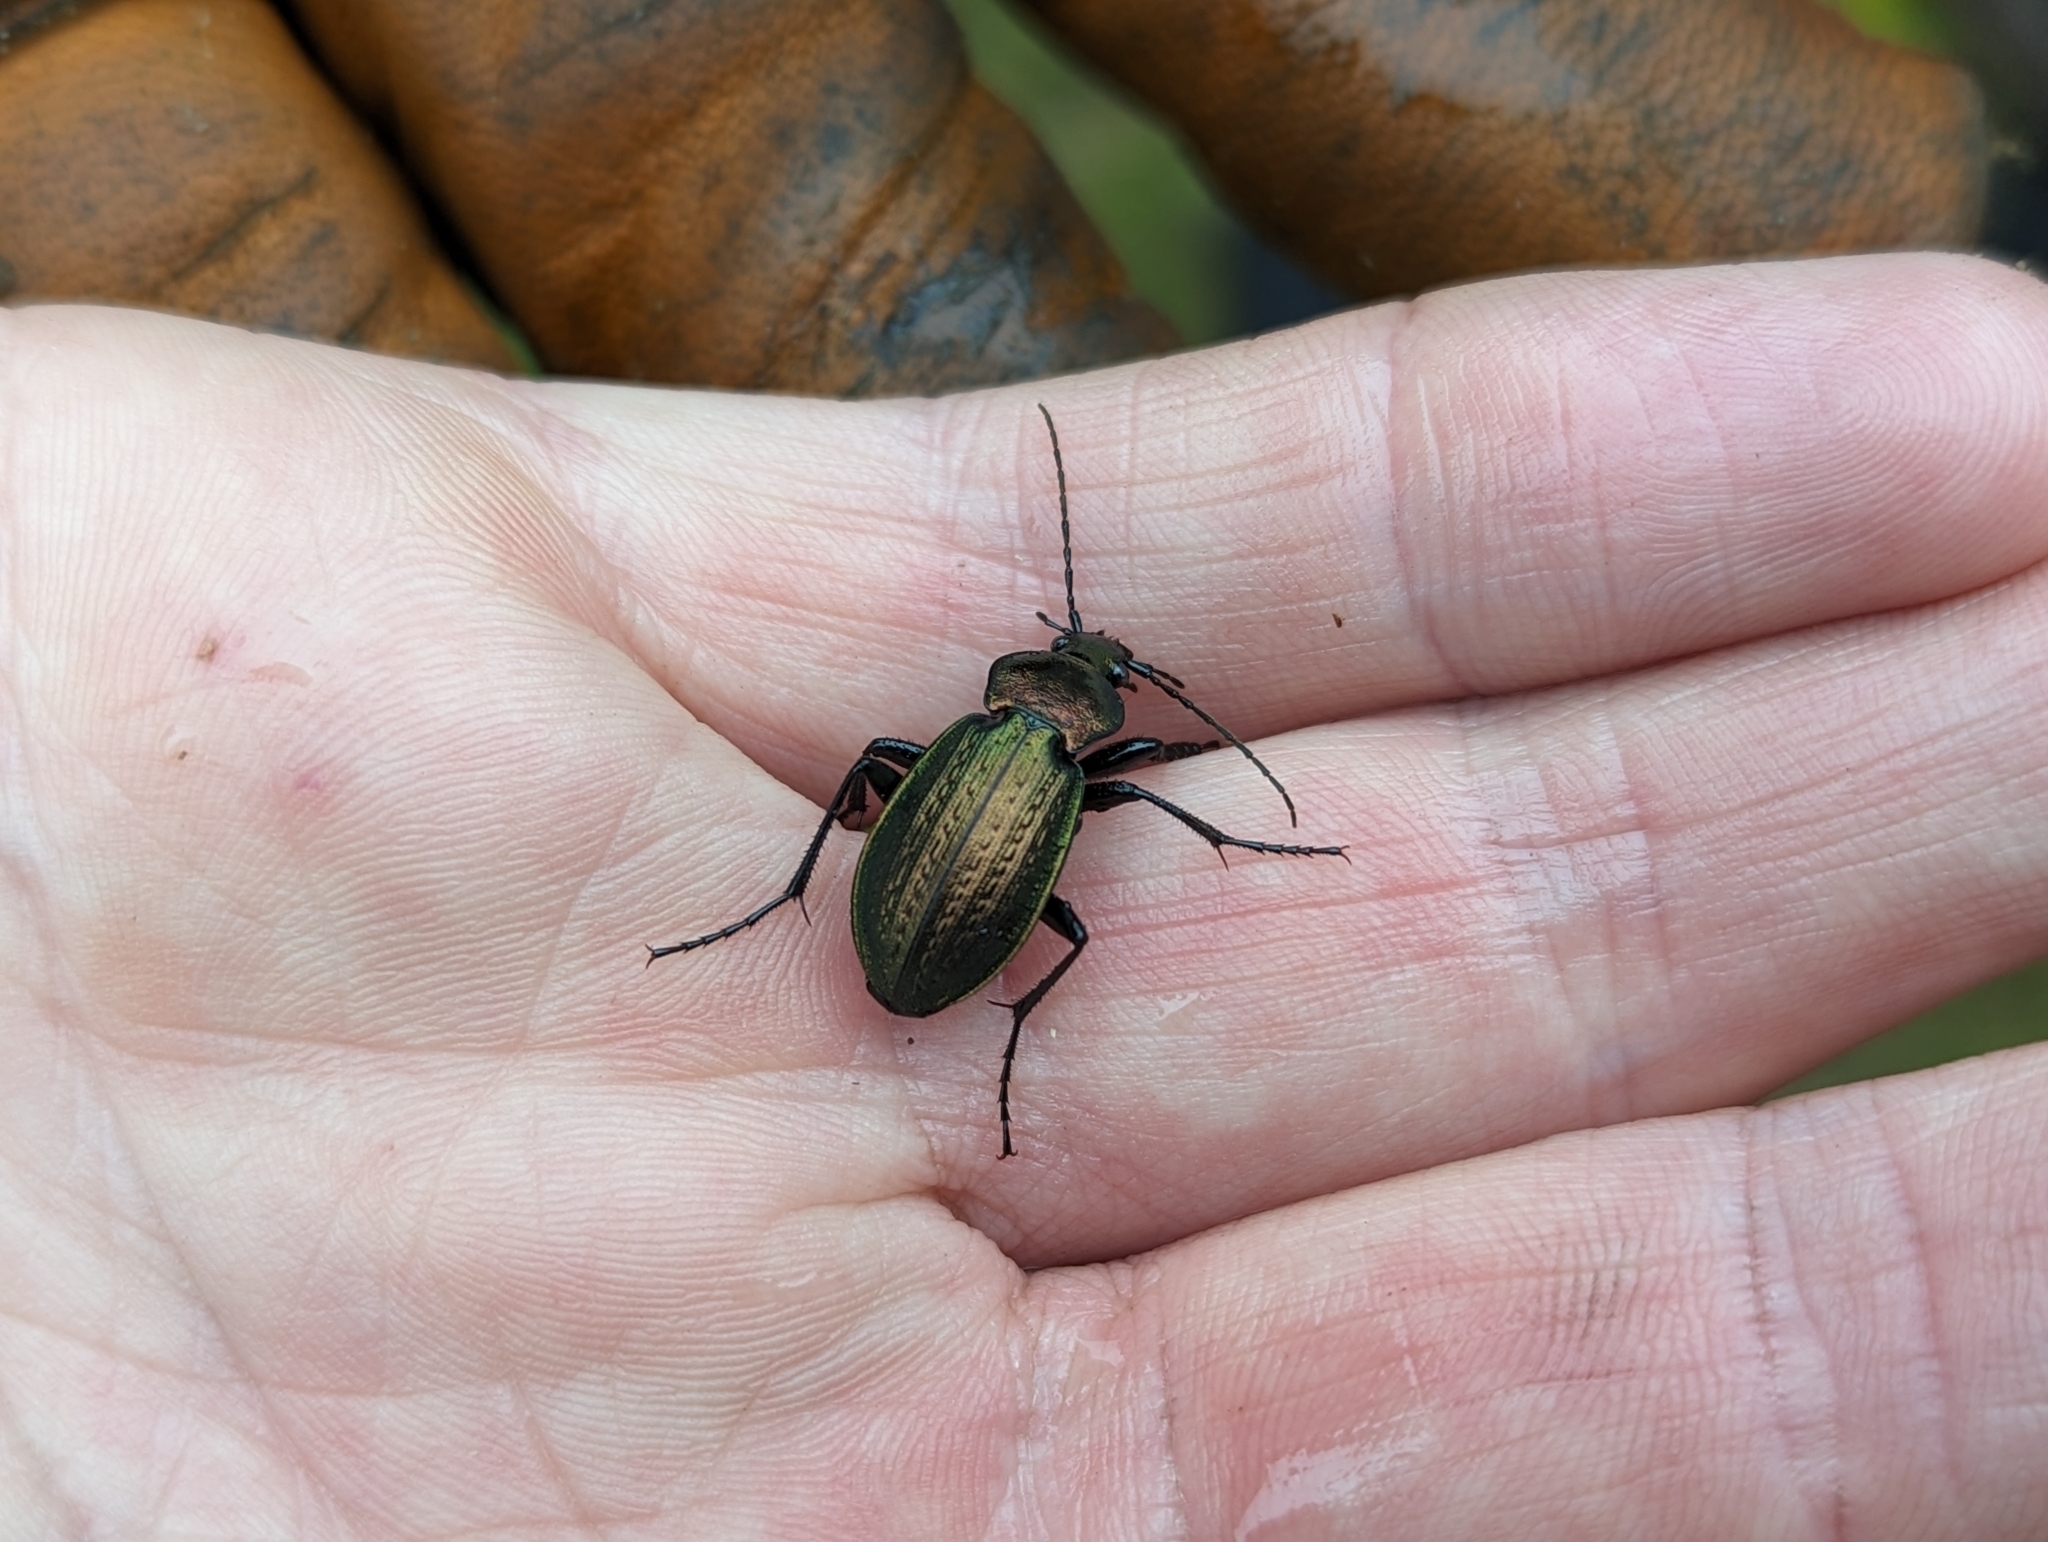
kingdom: Animalia
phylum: Arthropoda
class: Insecta
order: Coleoptera
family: Carabidae
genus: Carabus
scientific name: Carabus arvensis
